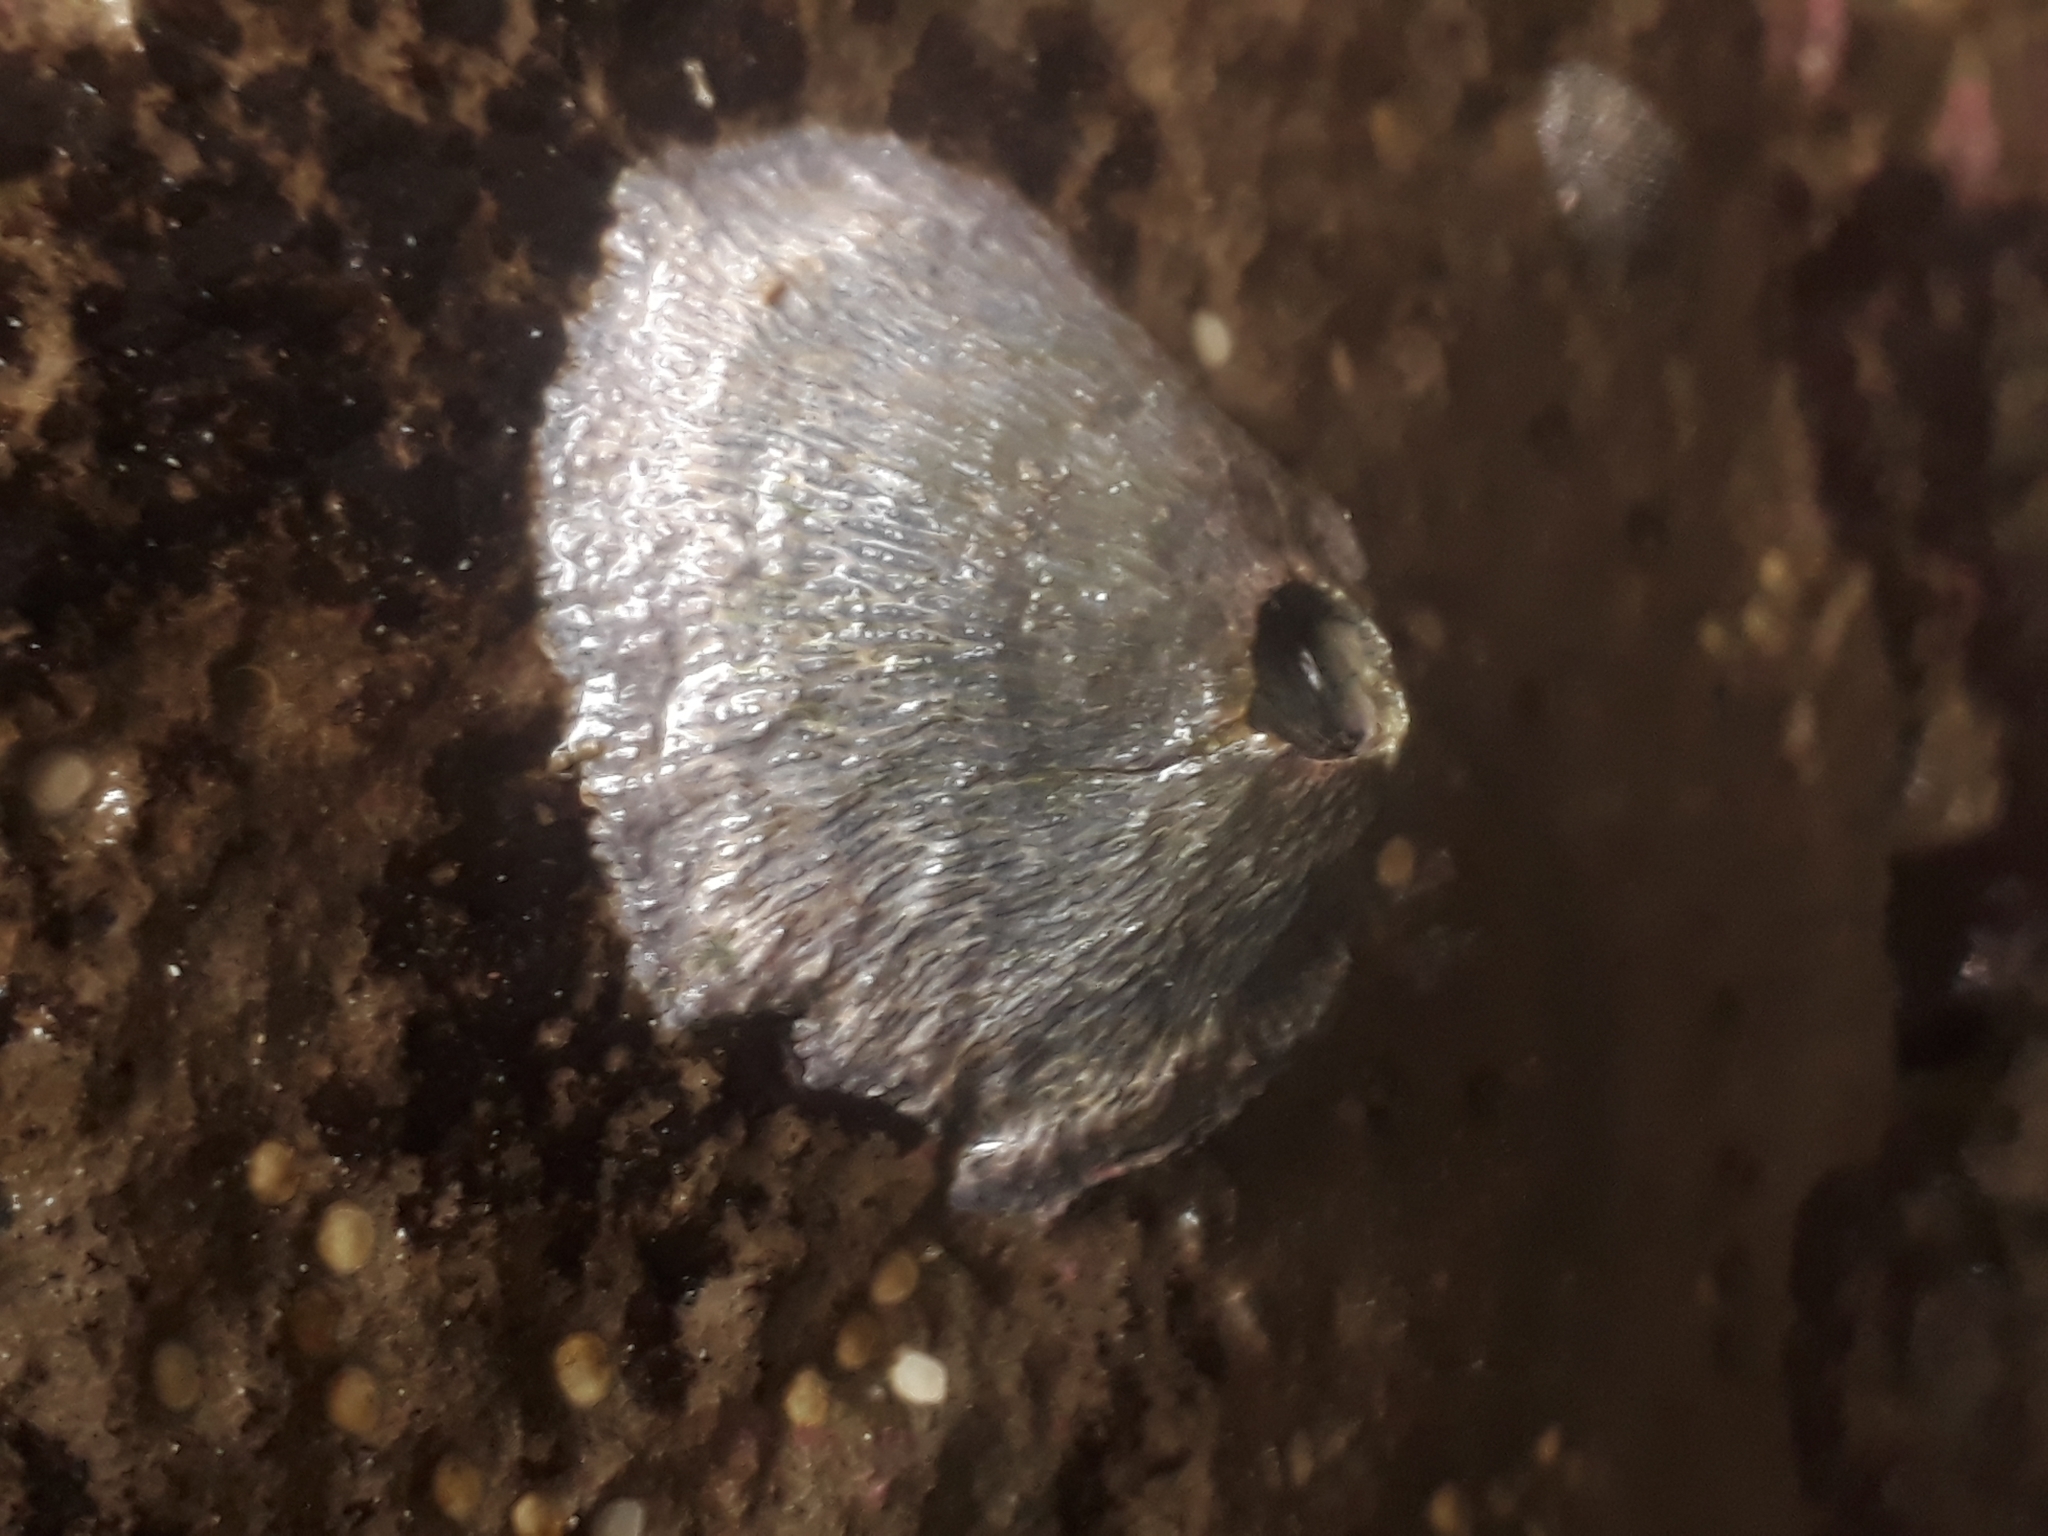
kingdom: Animalia
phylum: Arthropoda
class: Maxillopoda
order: Sessilia
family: Tetraclitidae
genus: Tetraclita
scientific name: Tetraclita panamensis
